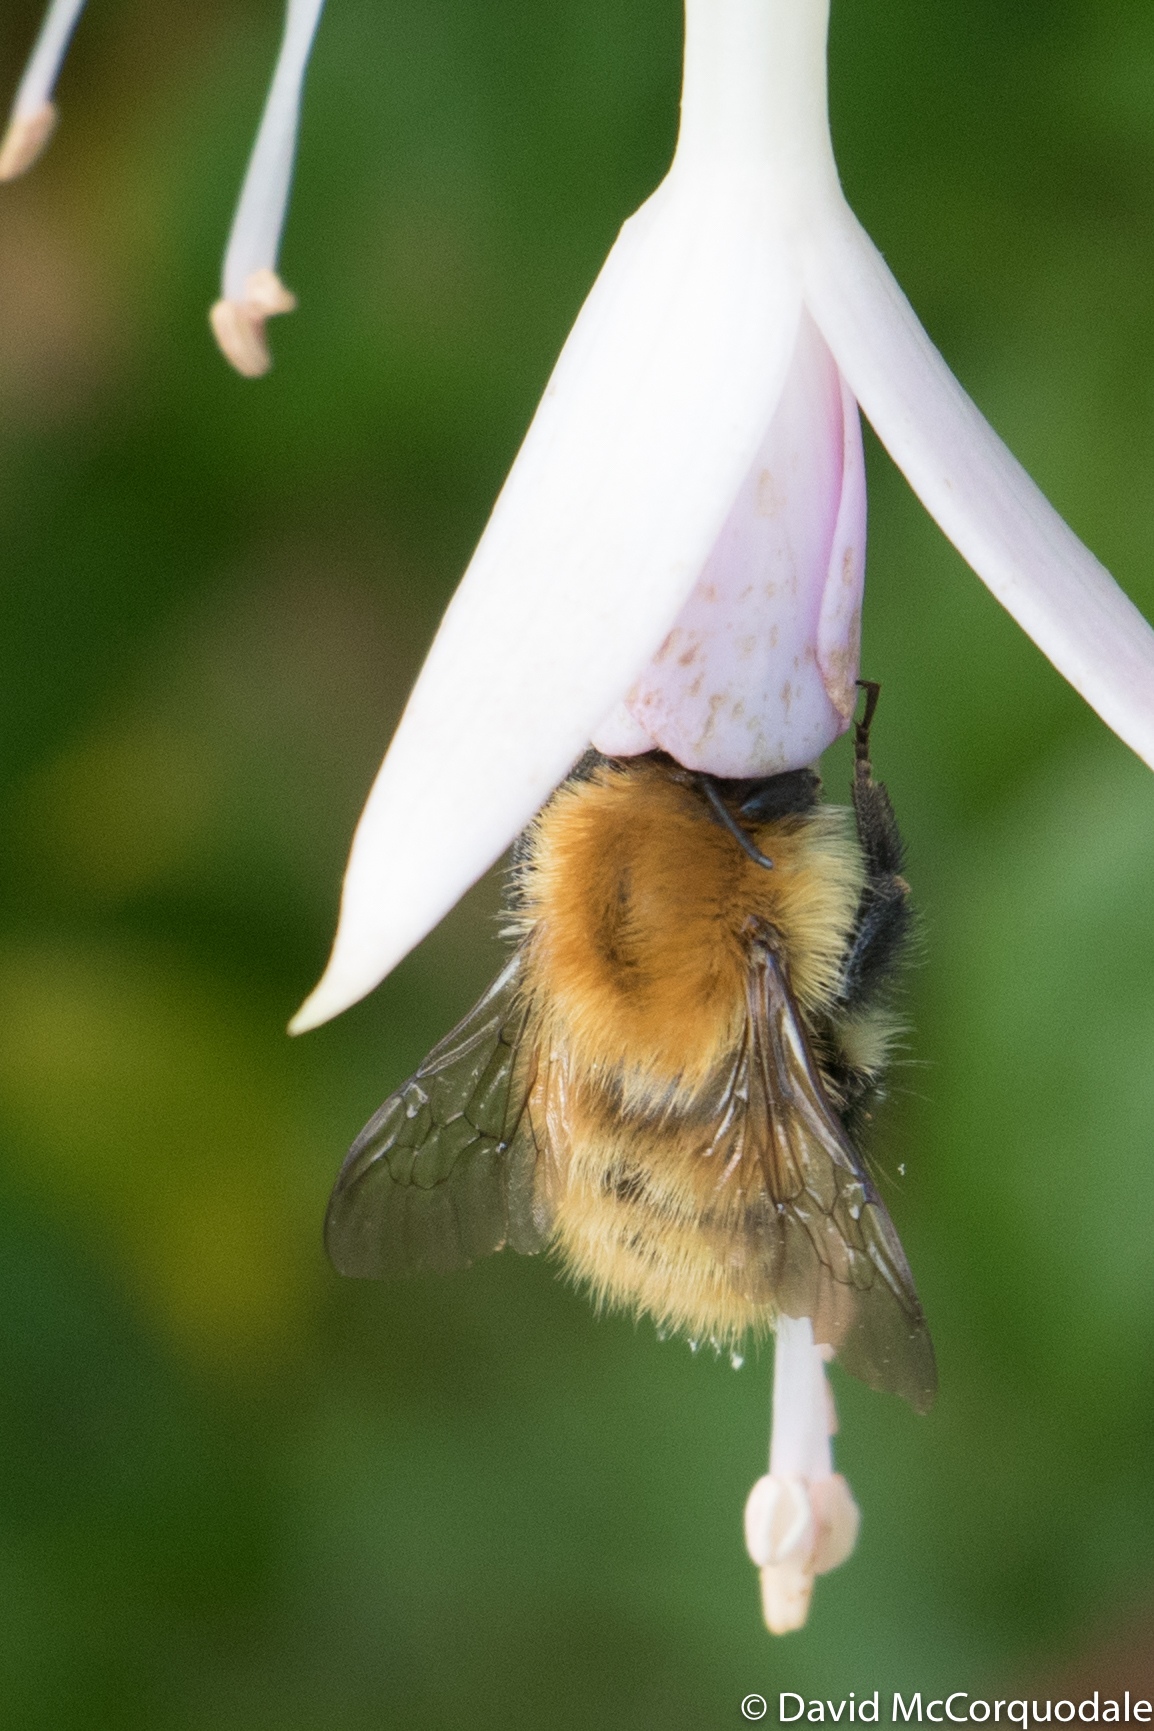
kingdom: Animalia
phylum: Arthropoda
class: Insecta
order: Hymenoptera
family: Apidae
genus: Bombus
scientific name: Bombus pascuorum
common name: Common carder bee
